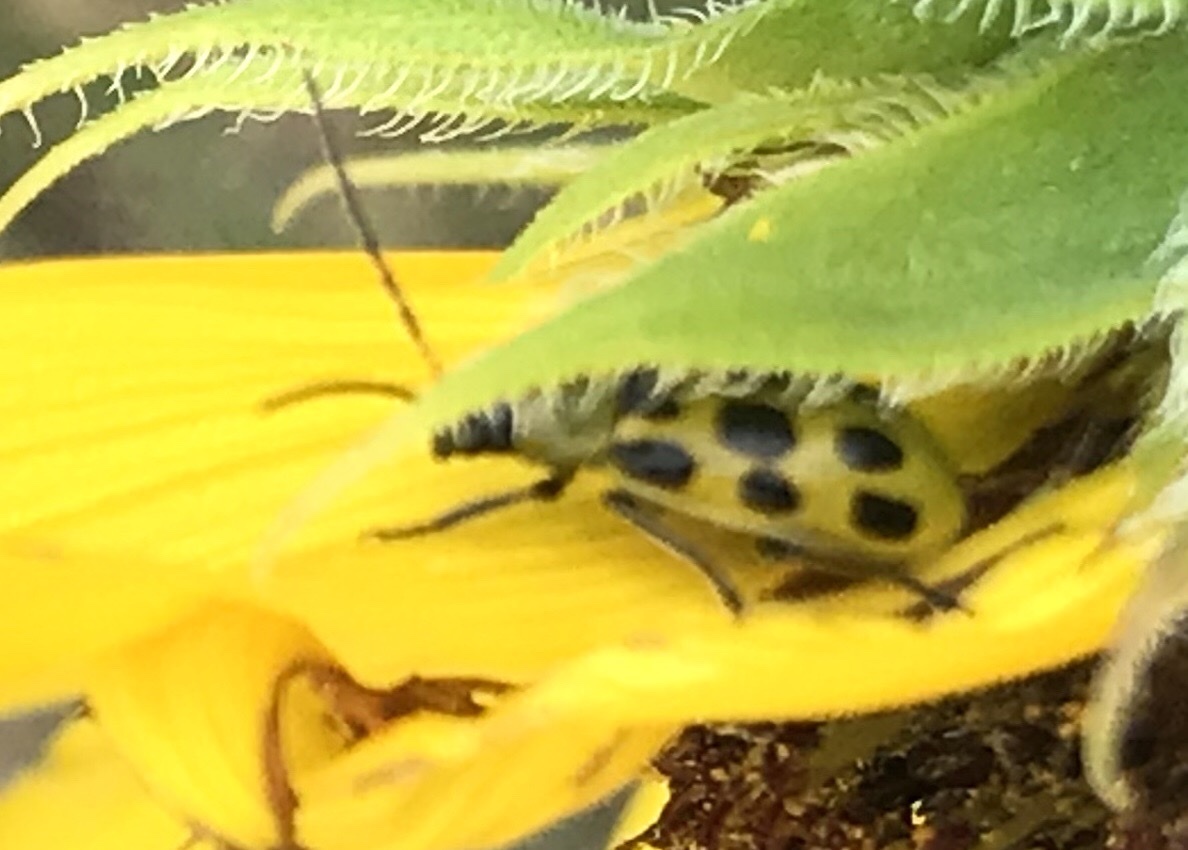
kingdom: Animalia
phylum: Arthropoda
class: Insecta
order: Coleoptera
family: Chrysomelidae
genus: Diabrotica
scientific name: Diabrotica undecimpunctata
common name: Spotted cucumber beetle
